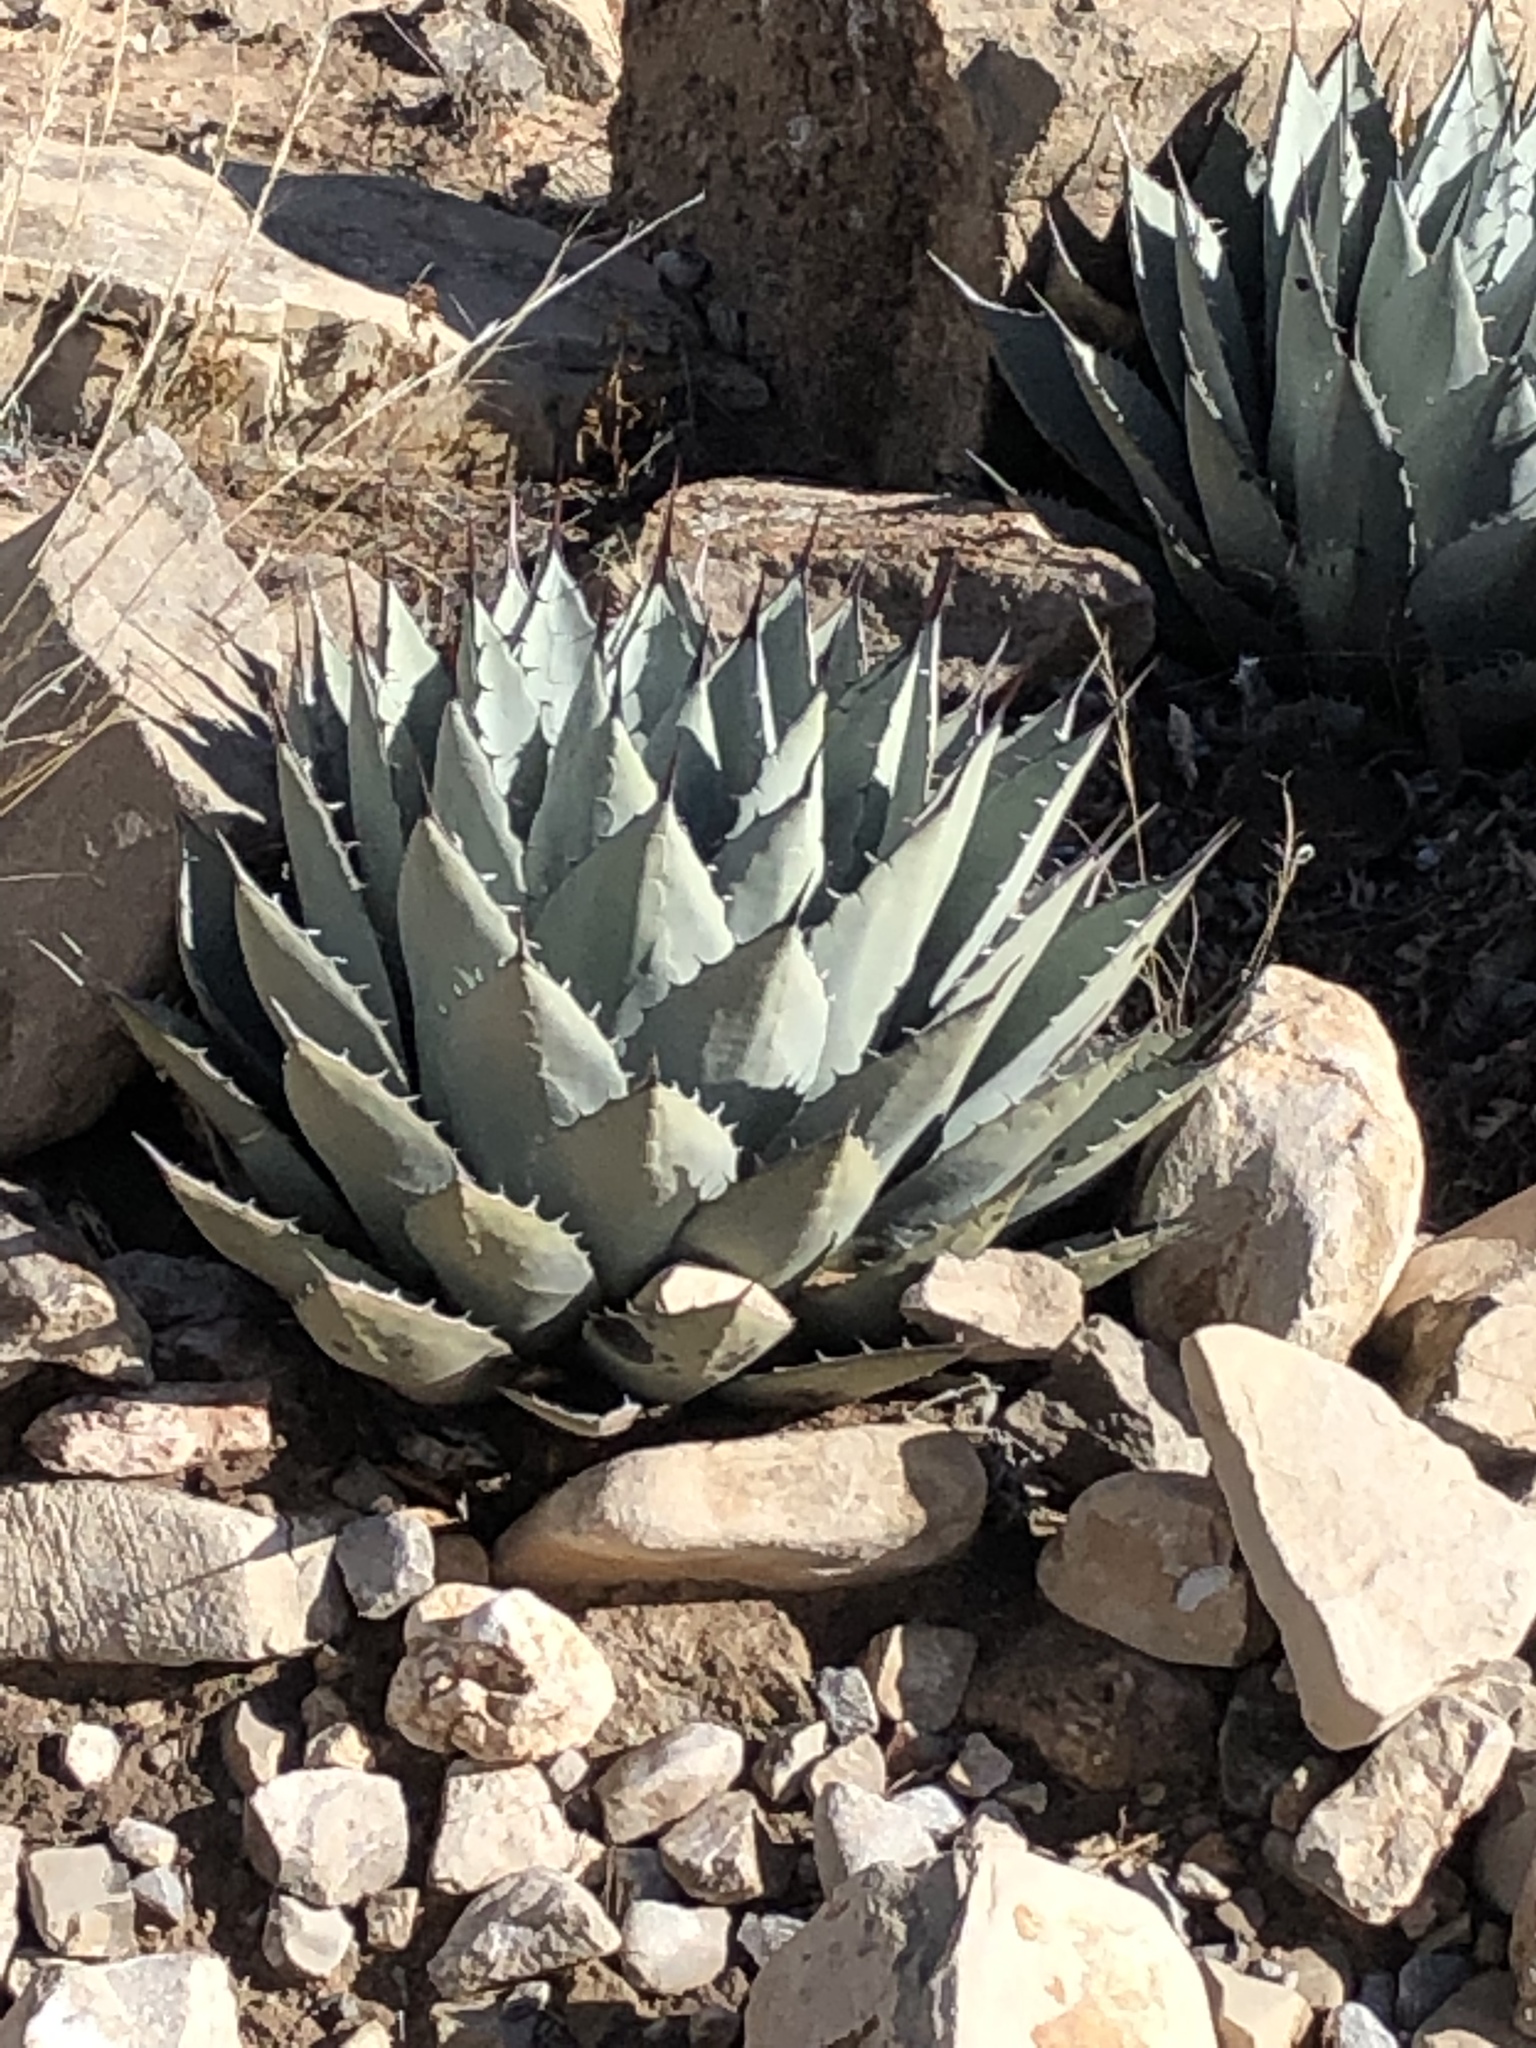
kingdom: Plantae
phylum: Tracheophyta
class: Liliopsida
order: Asparagales
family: Asparagaceae
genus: Agave
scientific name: Agave parryi
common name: Parry's agave
